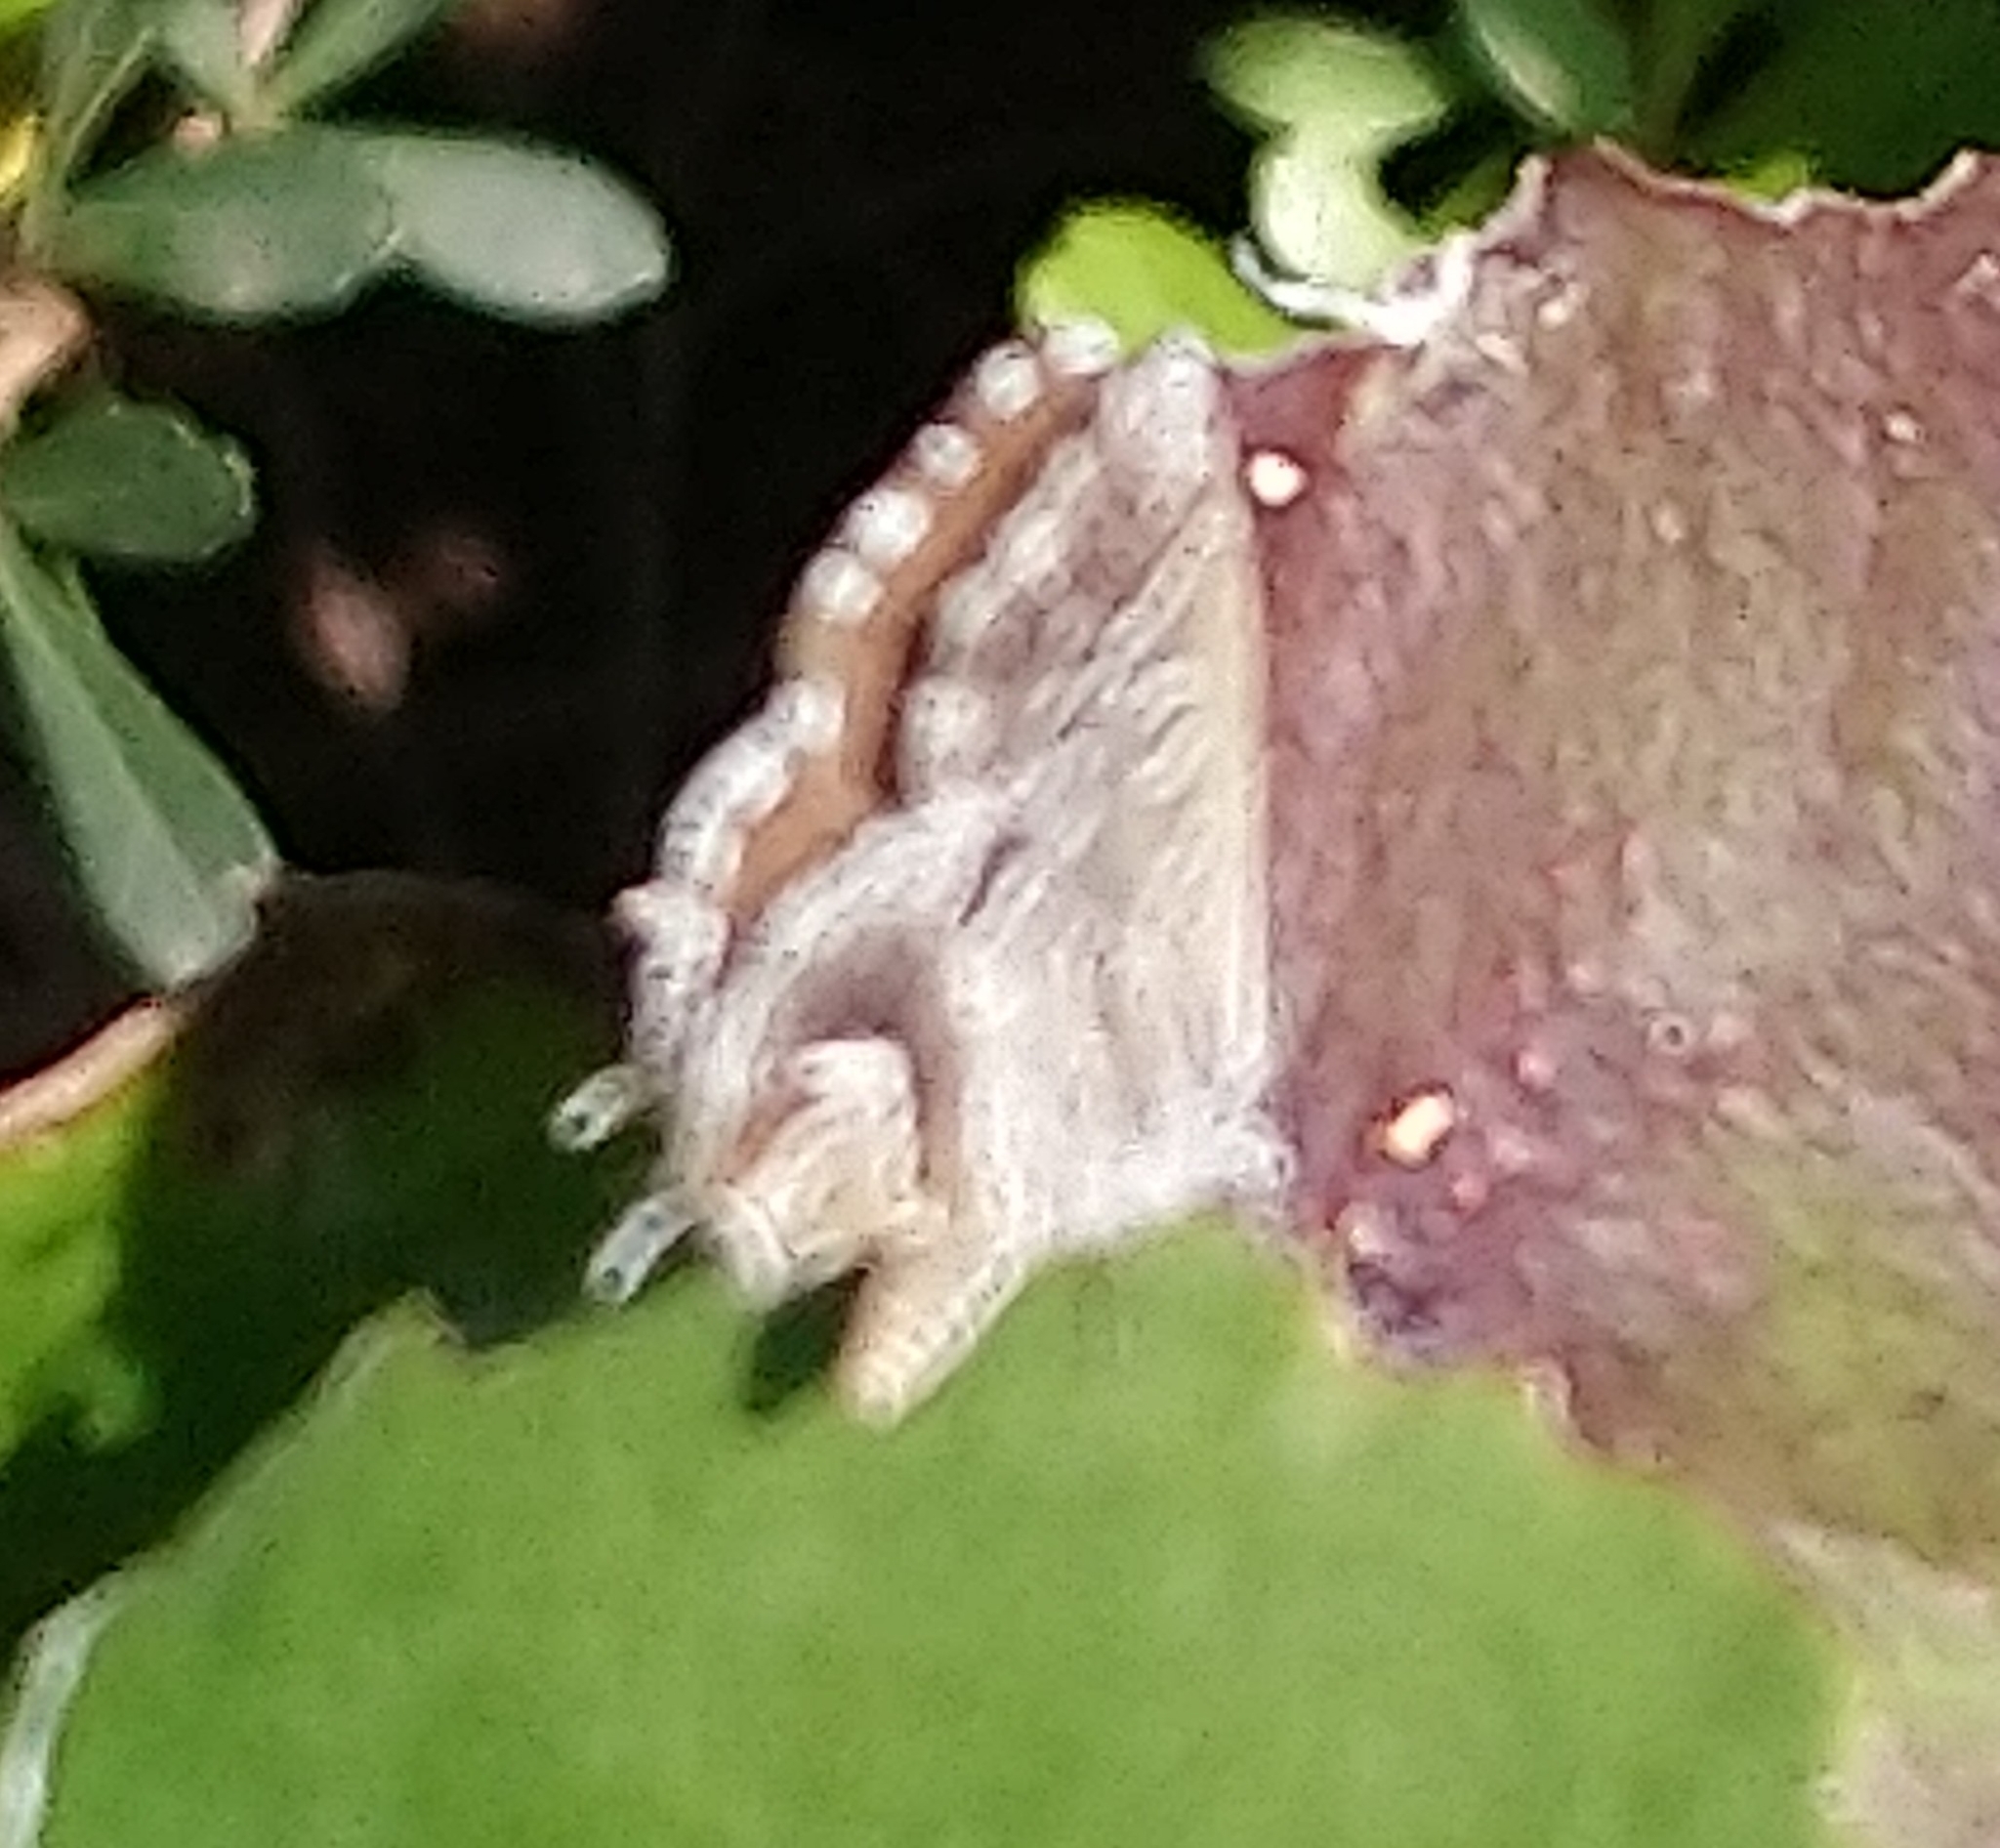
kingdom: Animalia
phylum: Arthropoda
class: Insecta
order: Lepidoptera
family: Lycaenidae
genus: Cacyreus
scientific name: Cacyreus marshalli
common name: Geranium bronze
